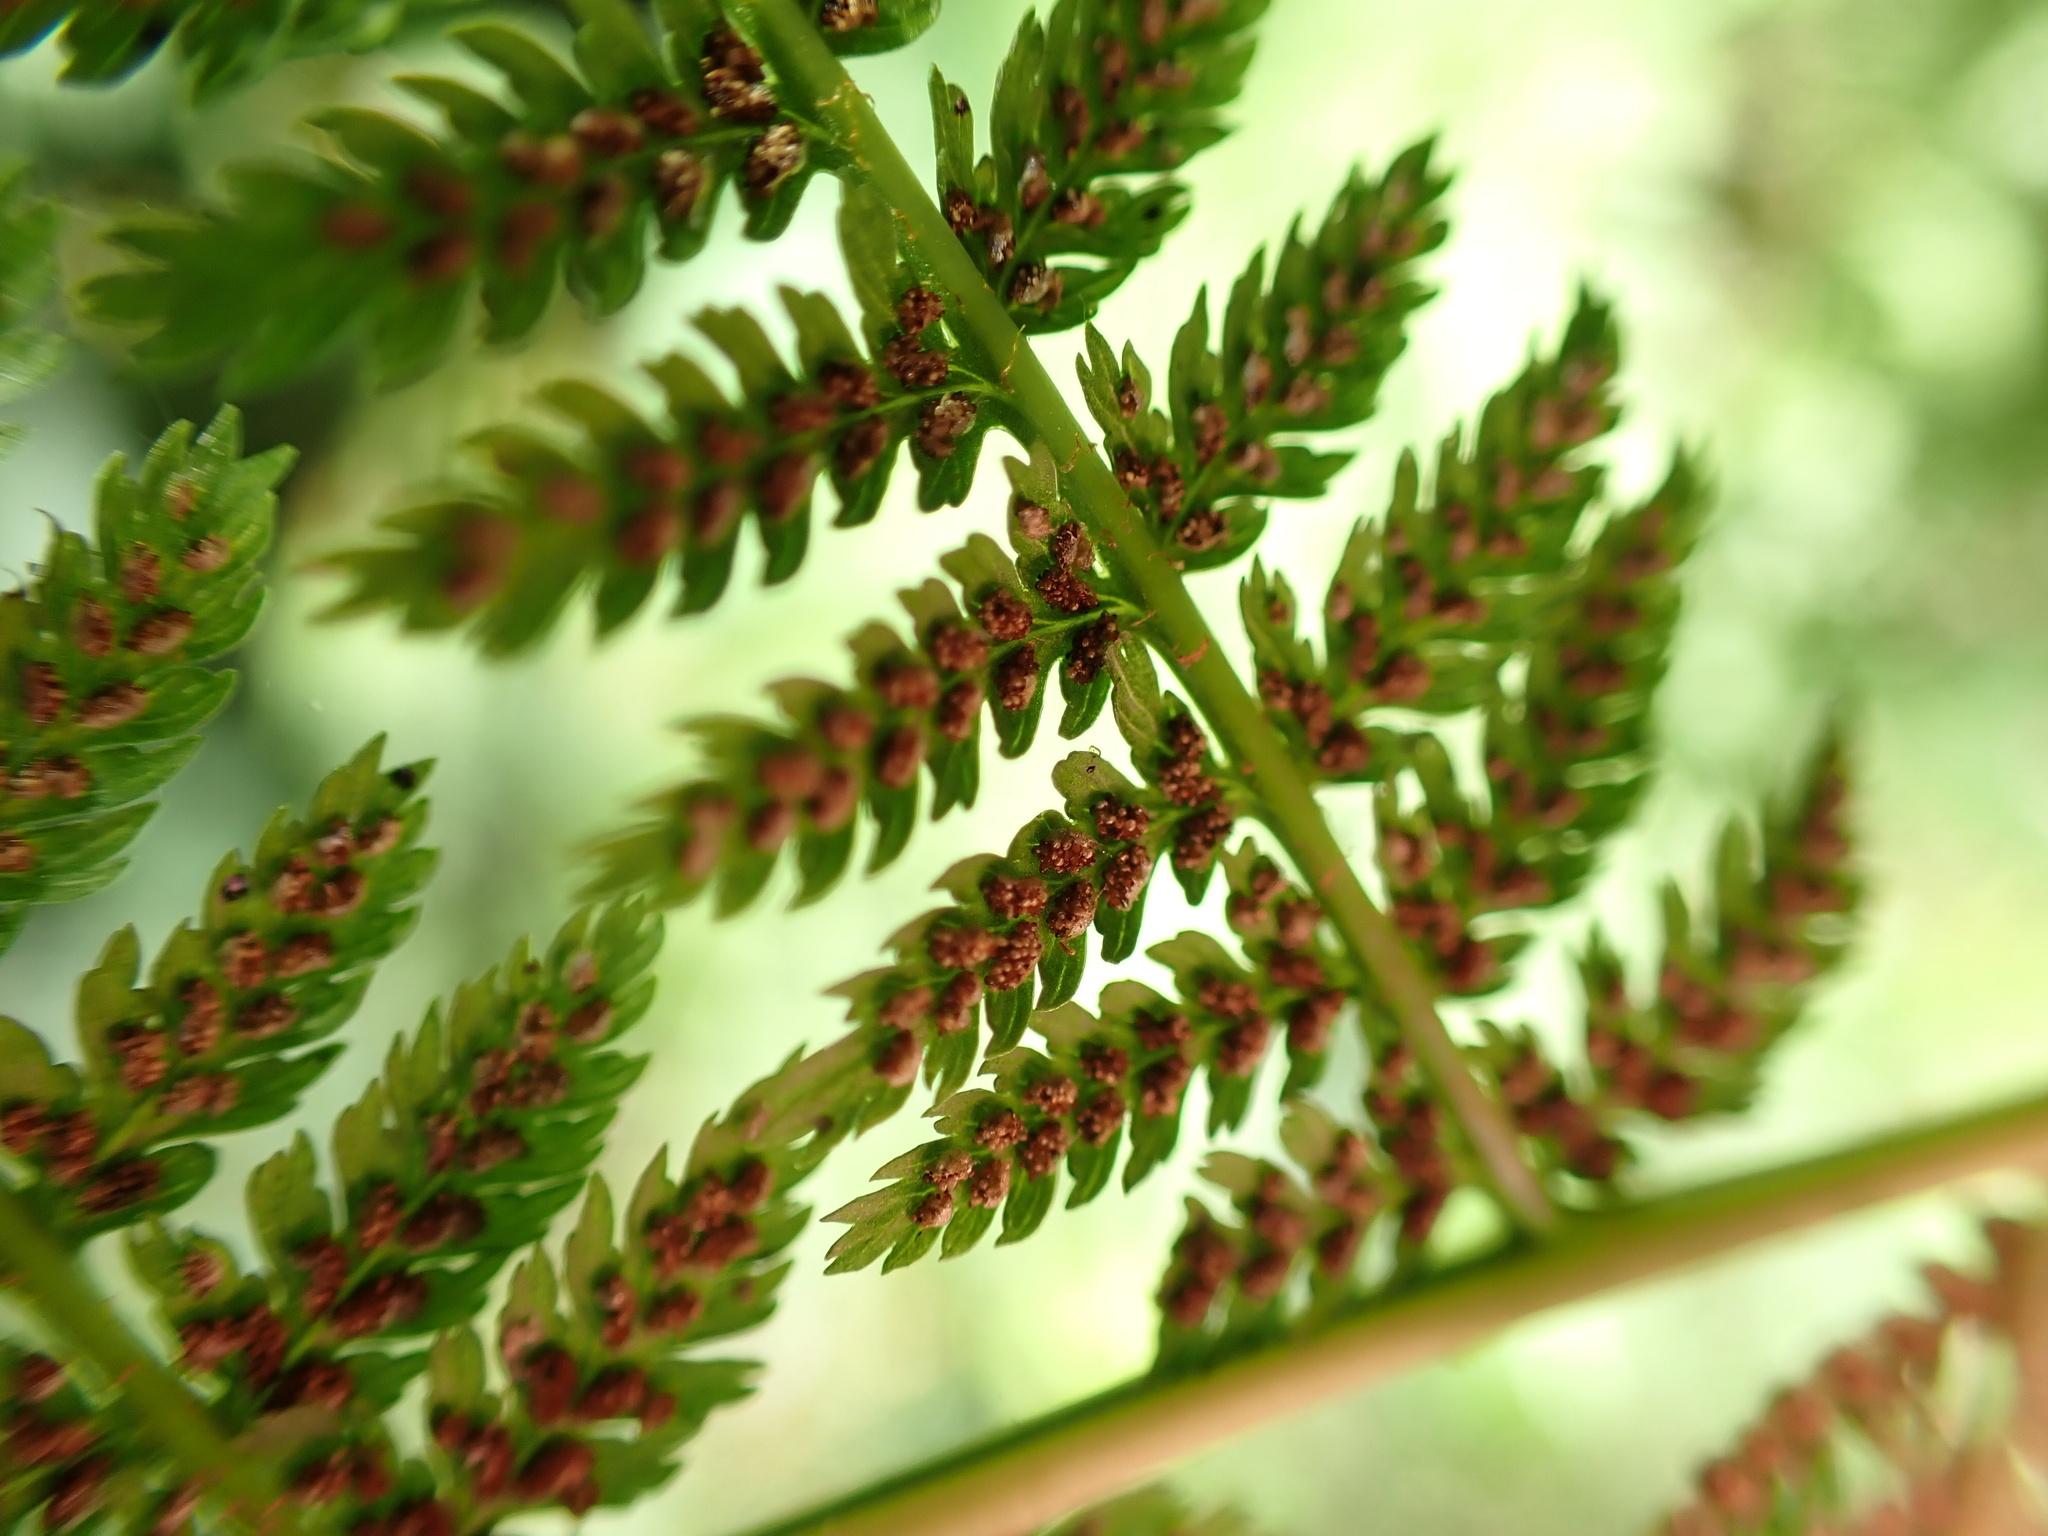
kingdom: Plantae
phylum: Tracheophyta
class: Polypodiopsida
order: Polypodiales
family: Athyriaceae
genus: Athyrium
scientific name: Athyrium filix-femina
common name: Lady fern
